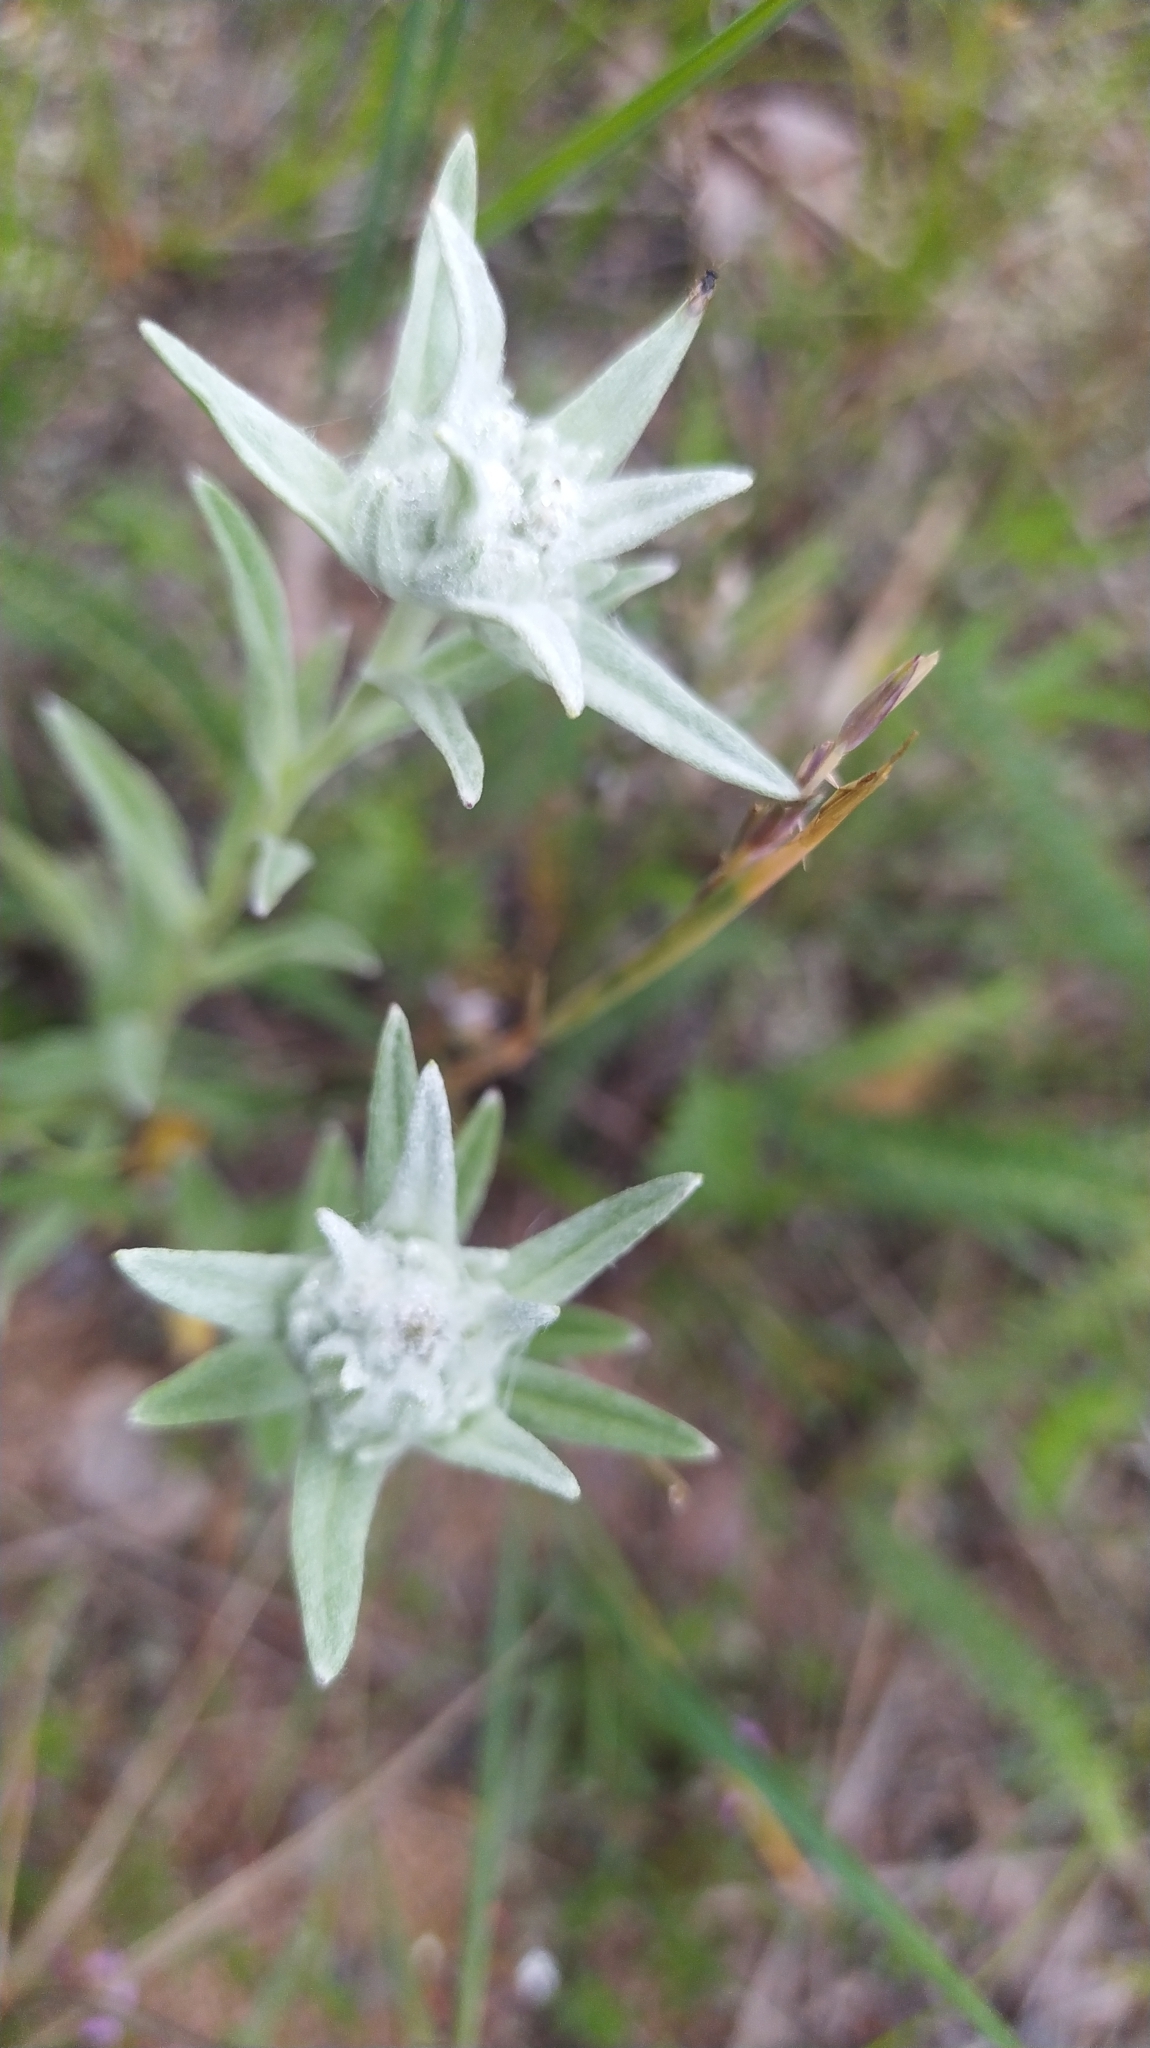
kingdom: Plantae
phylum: Tracheophyta
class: Magnoliopsida
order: Asterales
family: Asteraceae
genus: Leontopodium
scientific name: Leontopodium conglobatum
